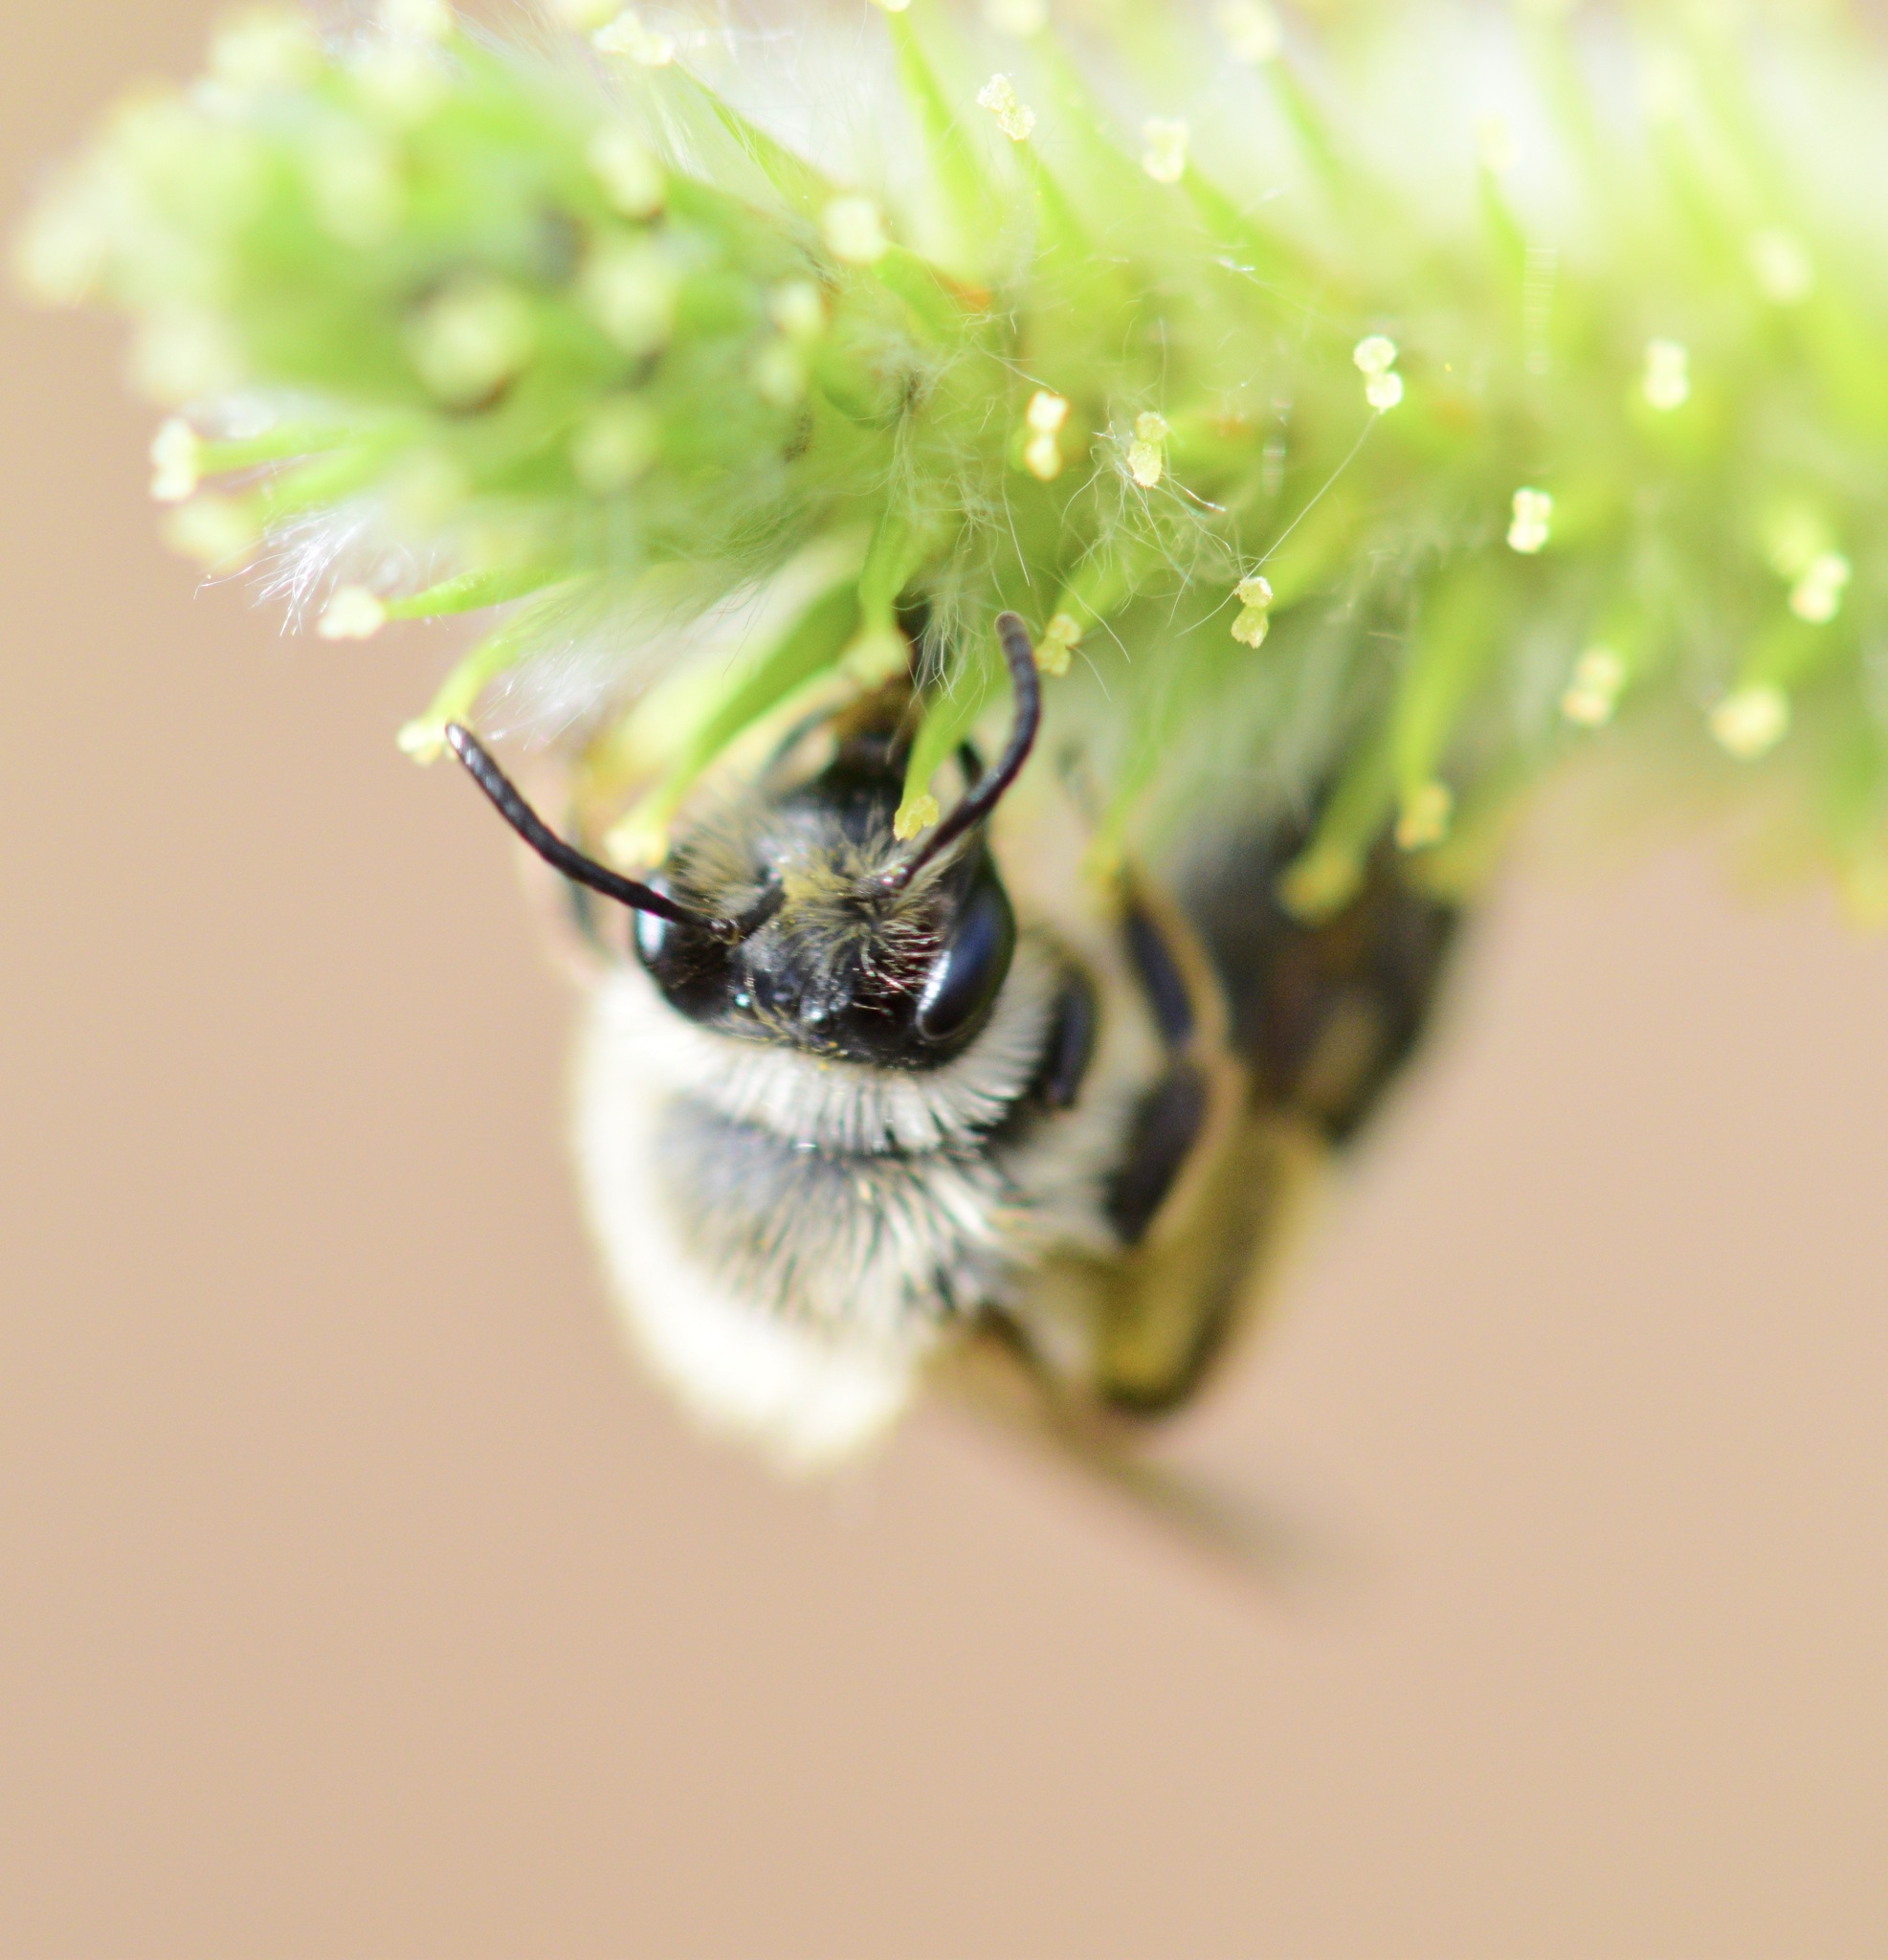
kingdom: Animalia
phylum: Arthropoda
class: Insecta
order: Hymenoptera
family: Andrenidae
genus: Andrena
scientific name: Andrena frigida
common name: Frigid mining bee
